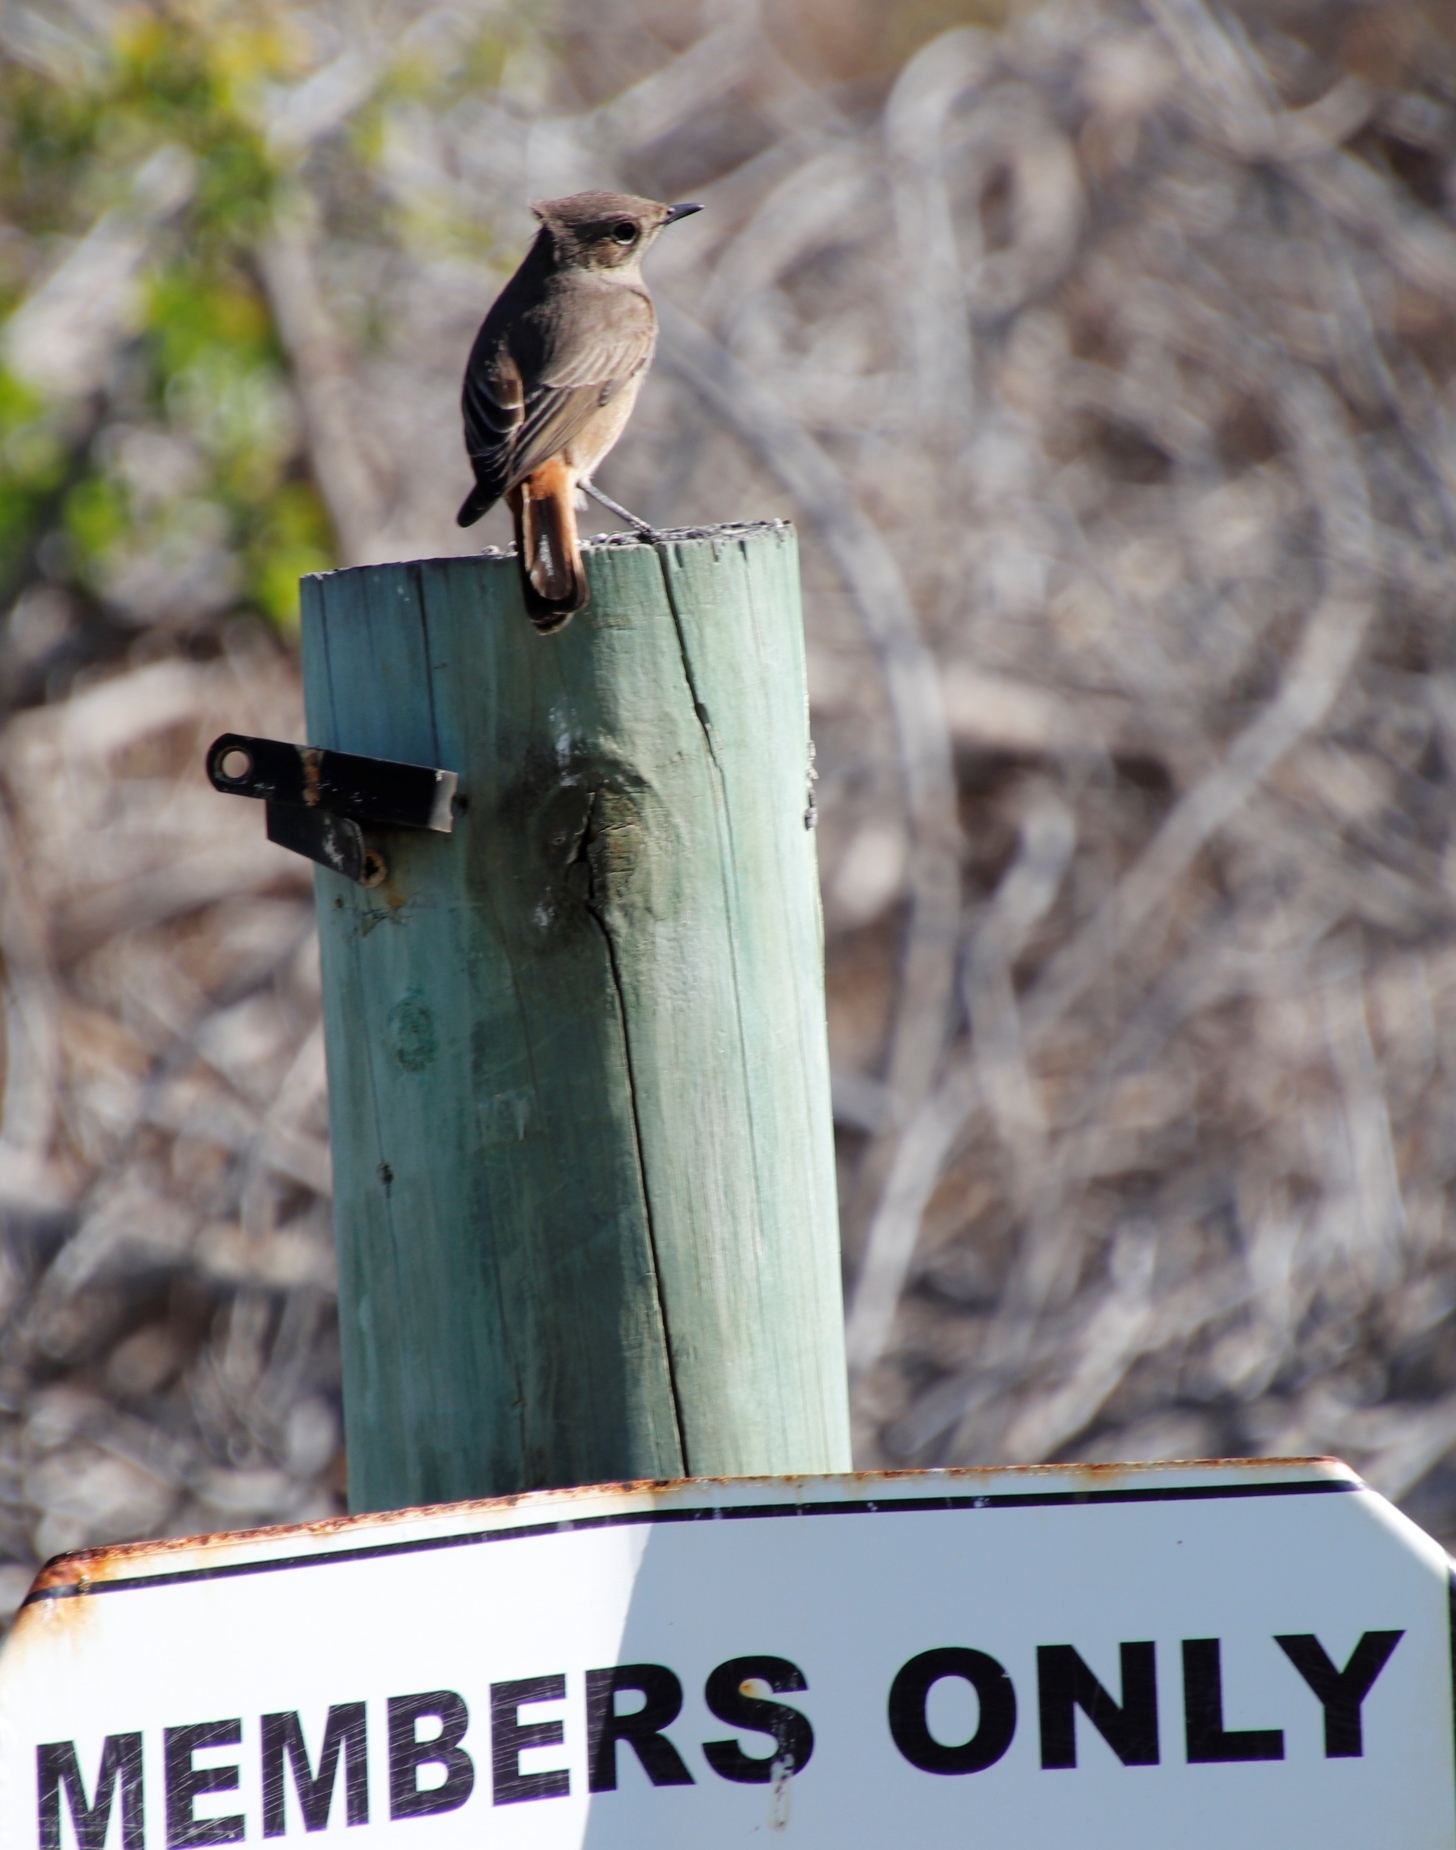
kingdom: Animalia
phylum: Chordata
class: Aves
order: Passeriformes
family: Muscicapidae
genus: Oenanthe
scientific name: Oenanthe familiaris
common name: Familiar chat
